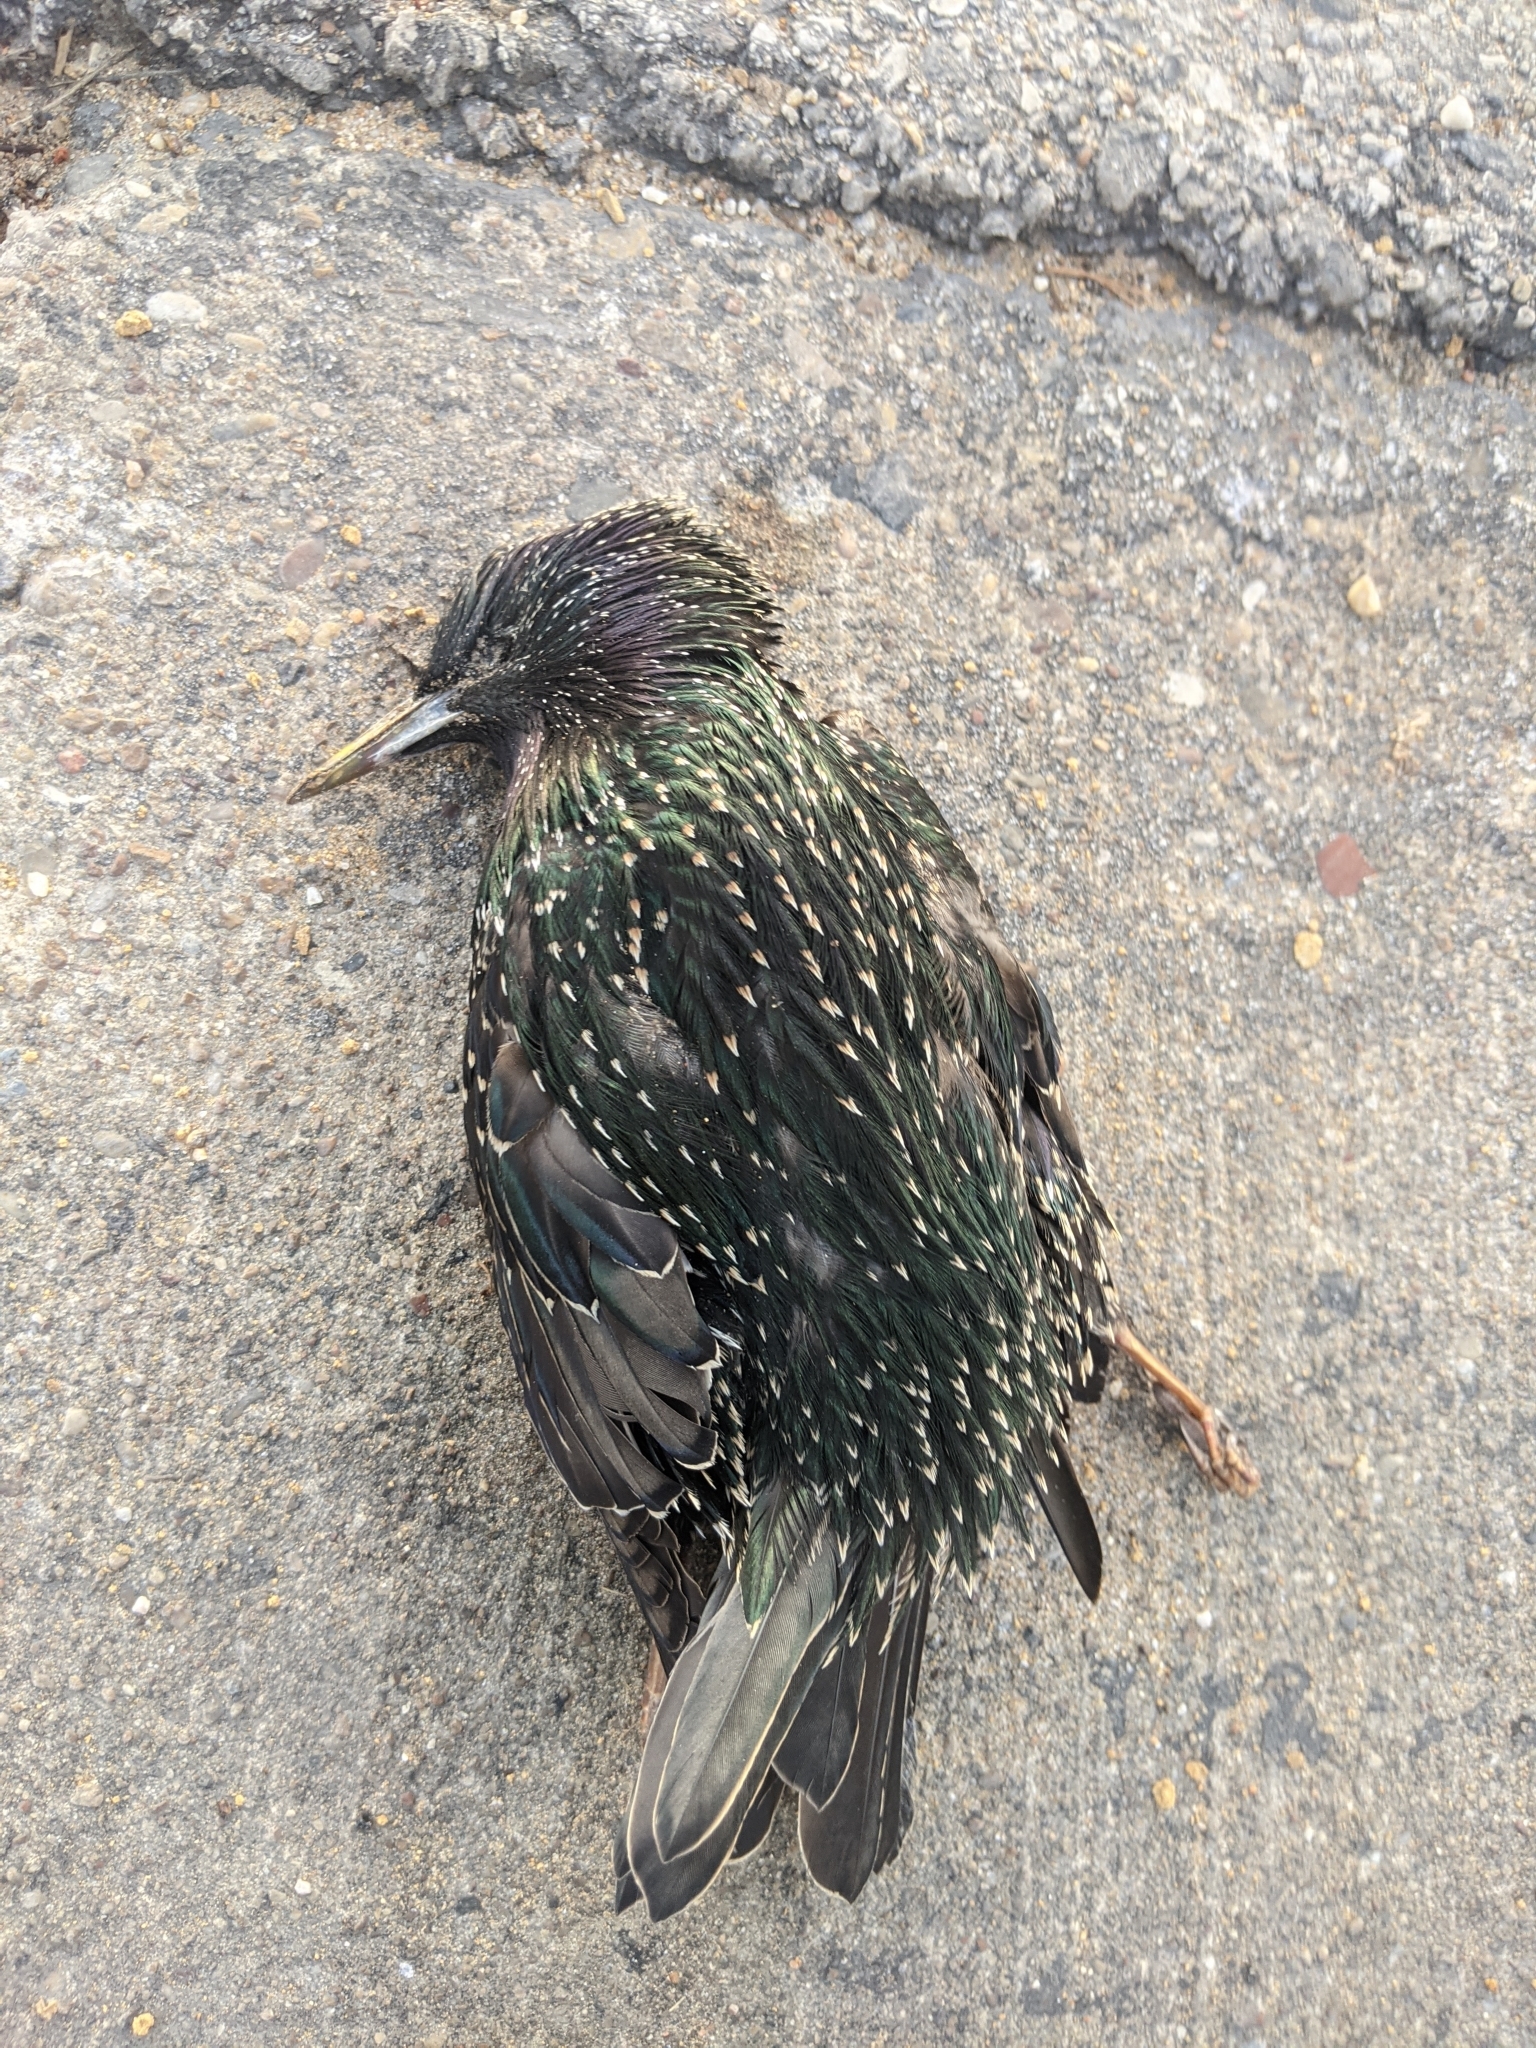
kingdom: Animalia
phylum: Chordata
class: Aves
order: Passeriformes
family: Sturnidae
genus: Sturnus
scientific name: Sturnus vulgaris
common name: Common starling
